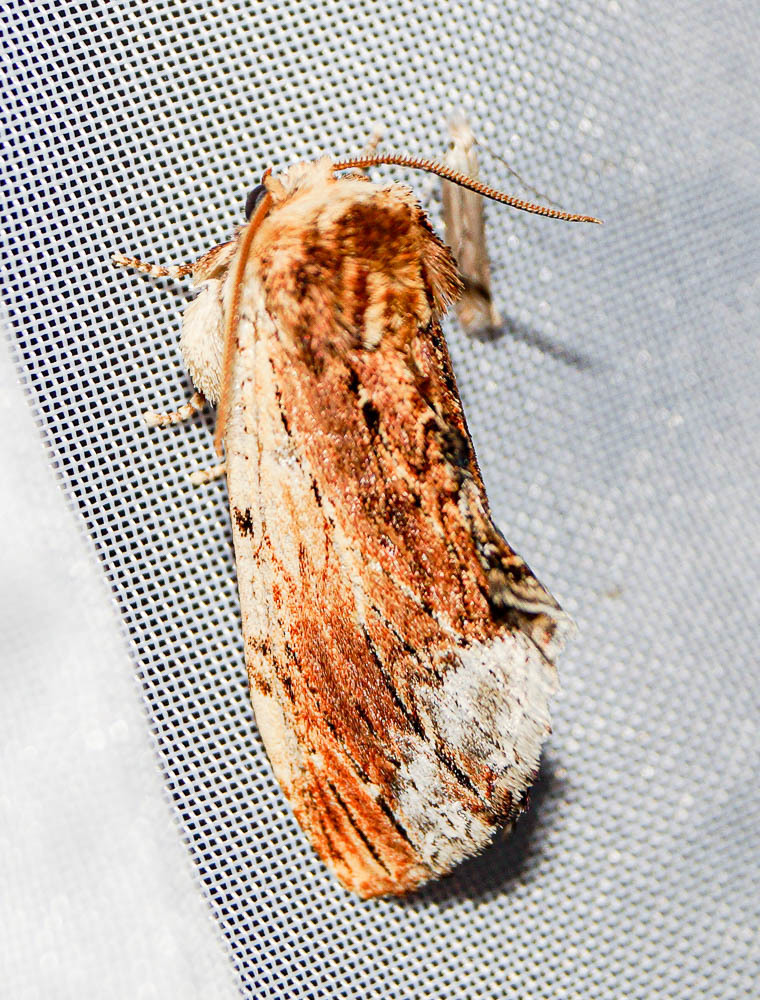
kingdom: Animalia
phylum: Arthropoda
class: Insecta
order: Lepidoptera
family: Notodontidae
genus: Ptilodon
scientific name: Ptilodon cucullina
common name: Maple prominent
